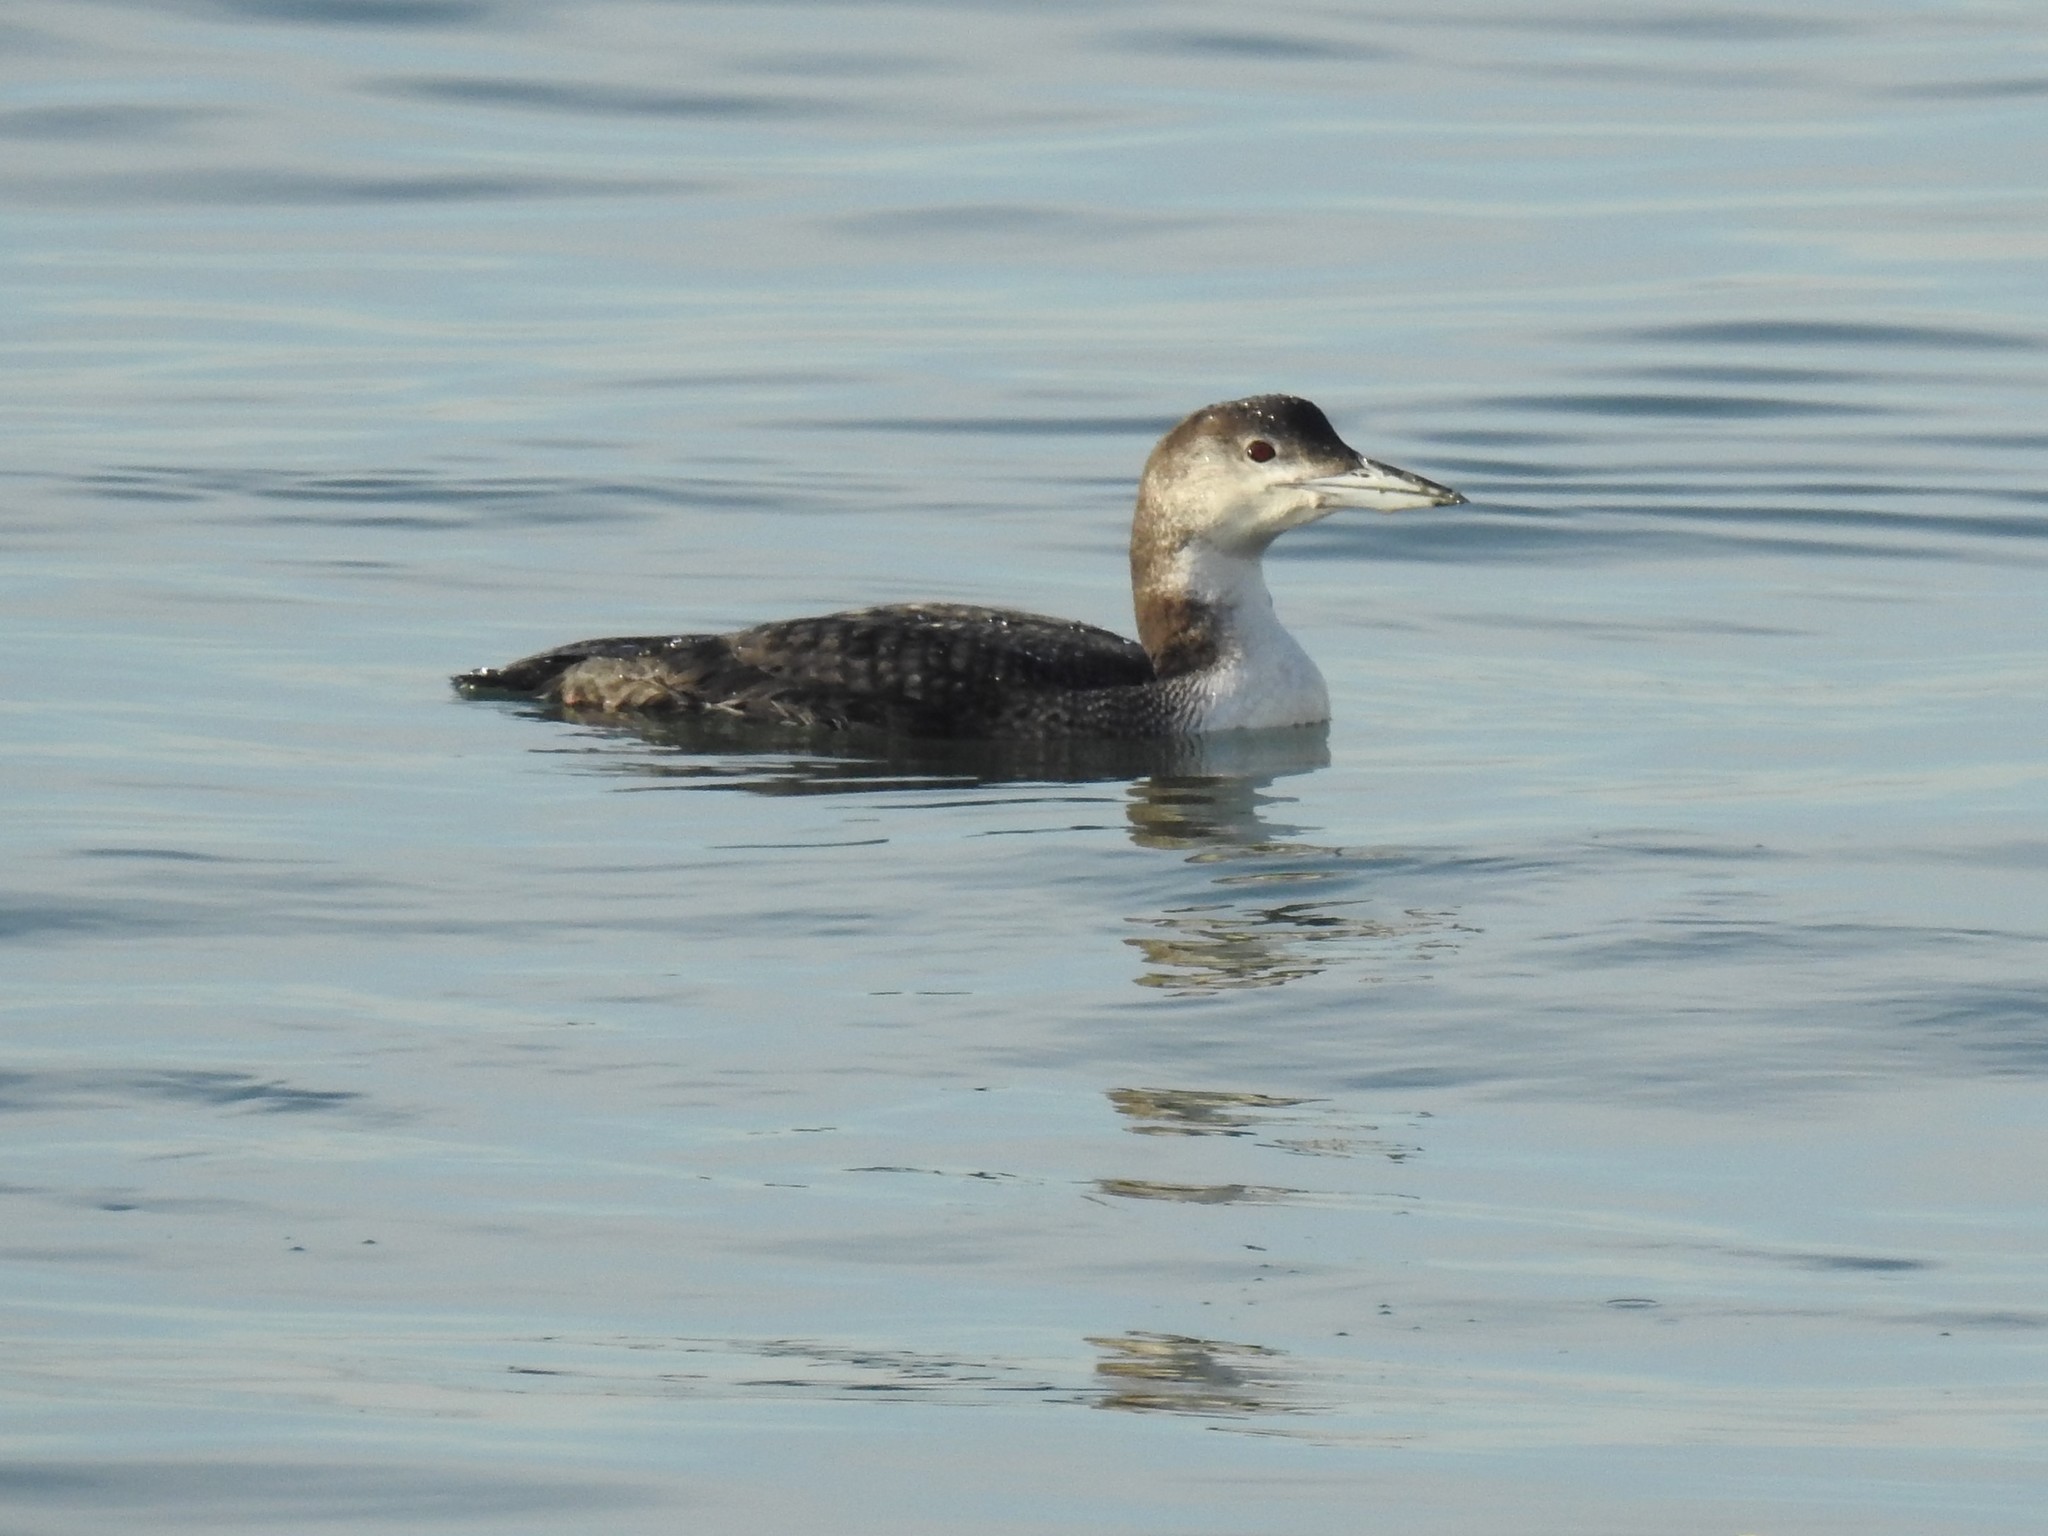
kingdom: Animalia
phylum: Chordata
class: Aves
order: Gaviiformes
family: Gaviidae
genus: Gavia
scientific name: Gavia immer
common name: Common loon
